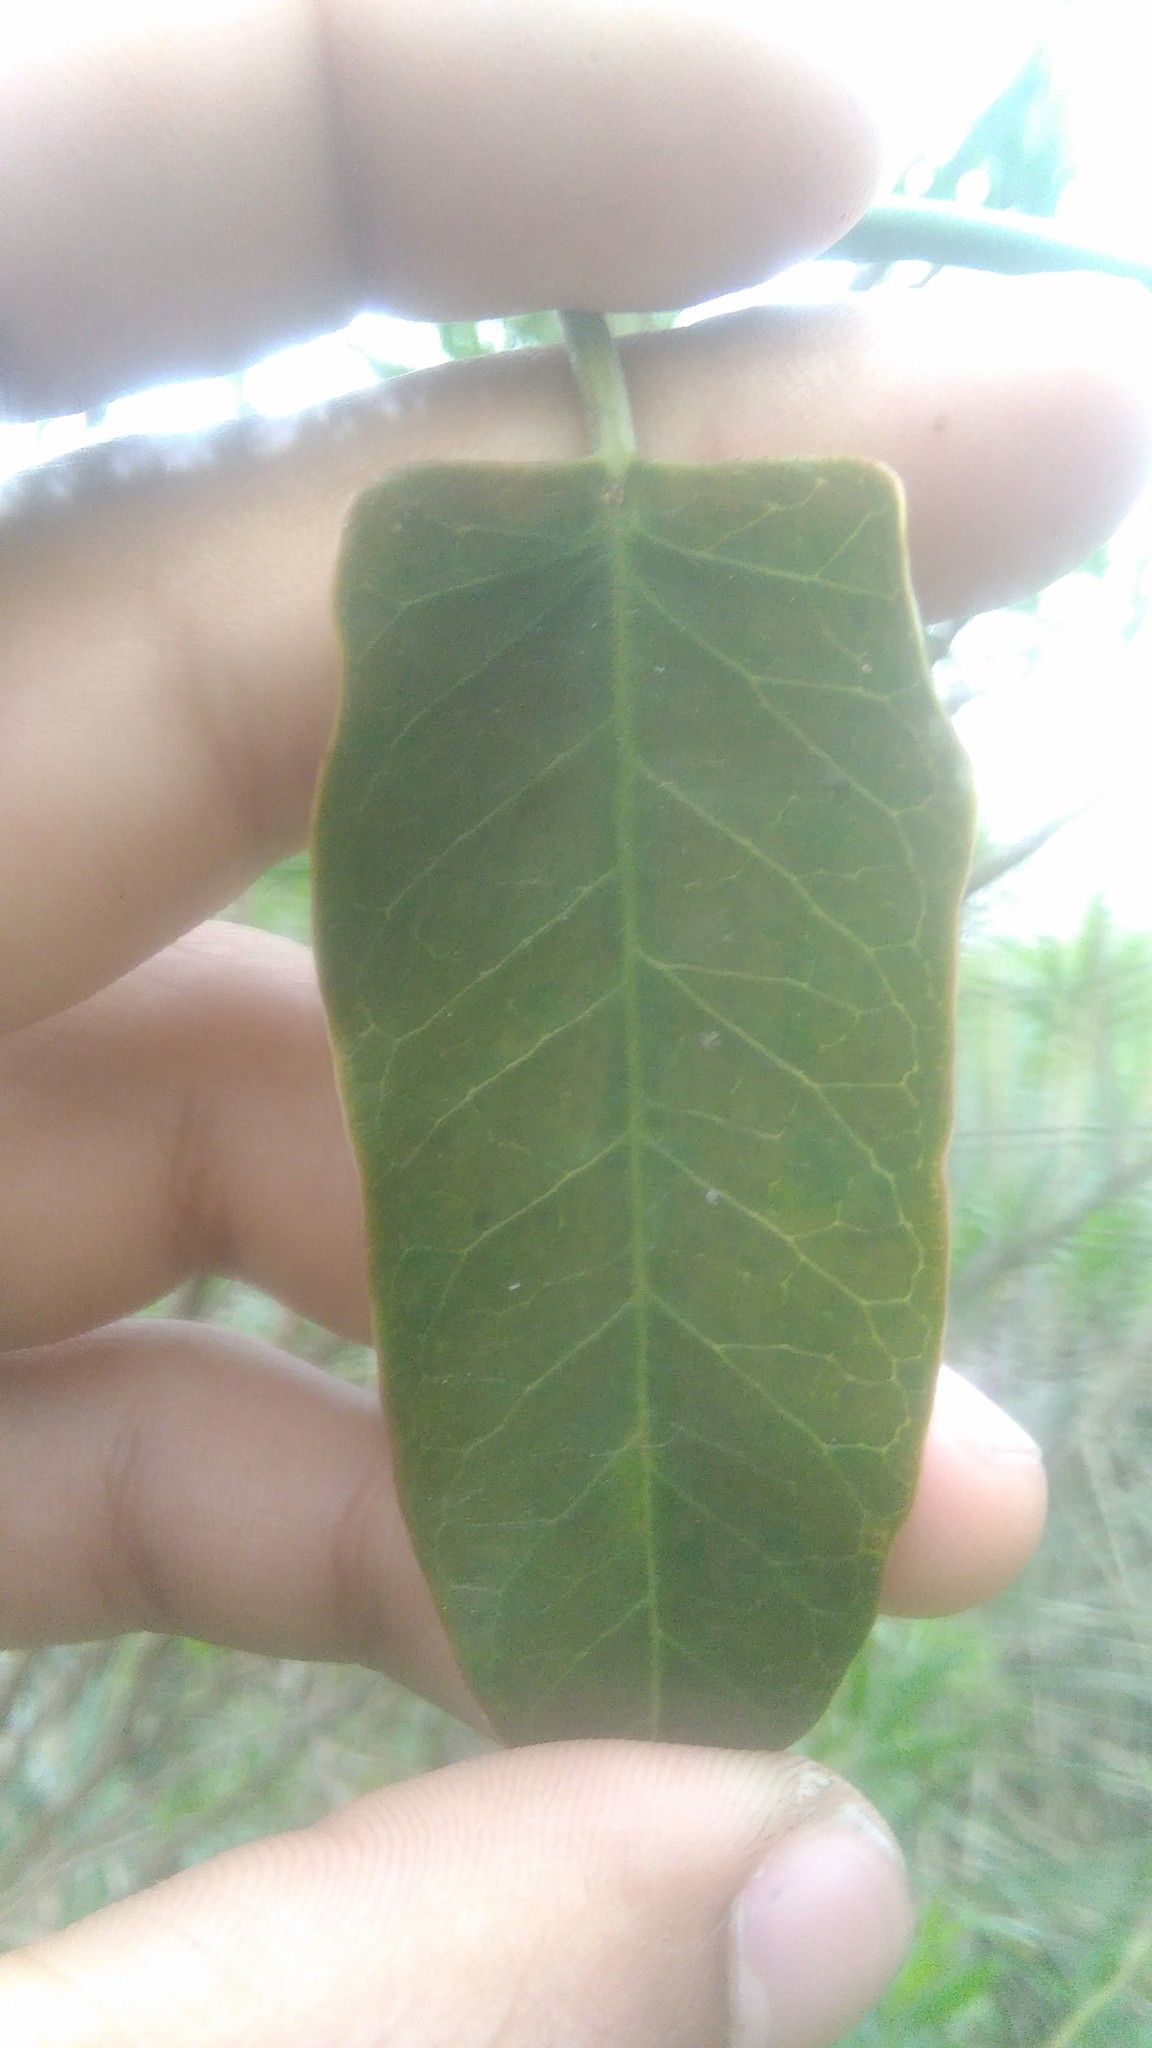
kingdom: Plantae
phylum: Tracheophyta
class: Magnoliopsida
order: Gentianales
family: Apocynaceae
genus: Araujia
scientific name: Araujia sericifera
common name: White bladderflower
